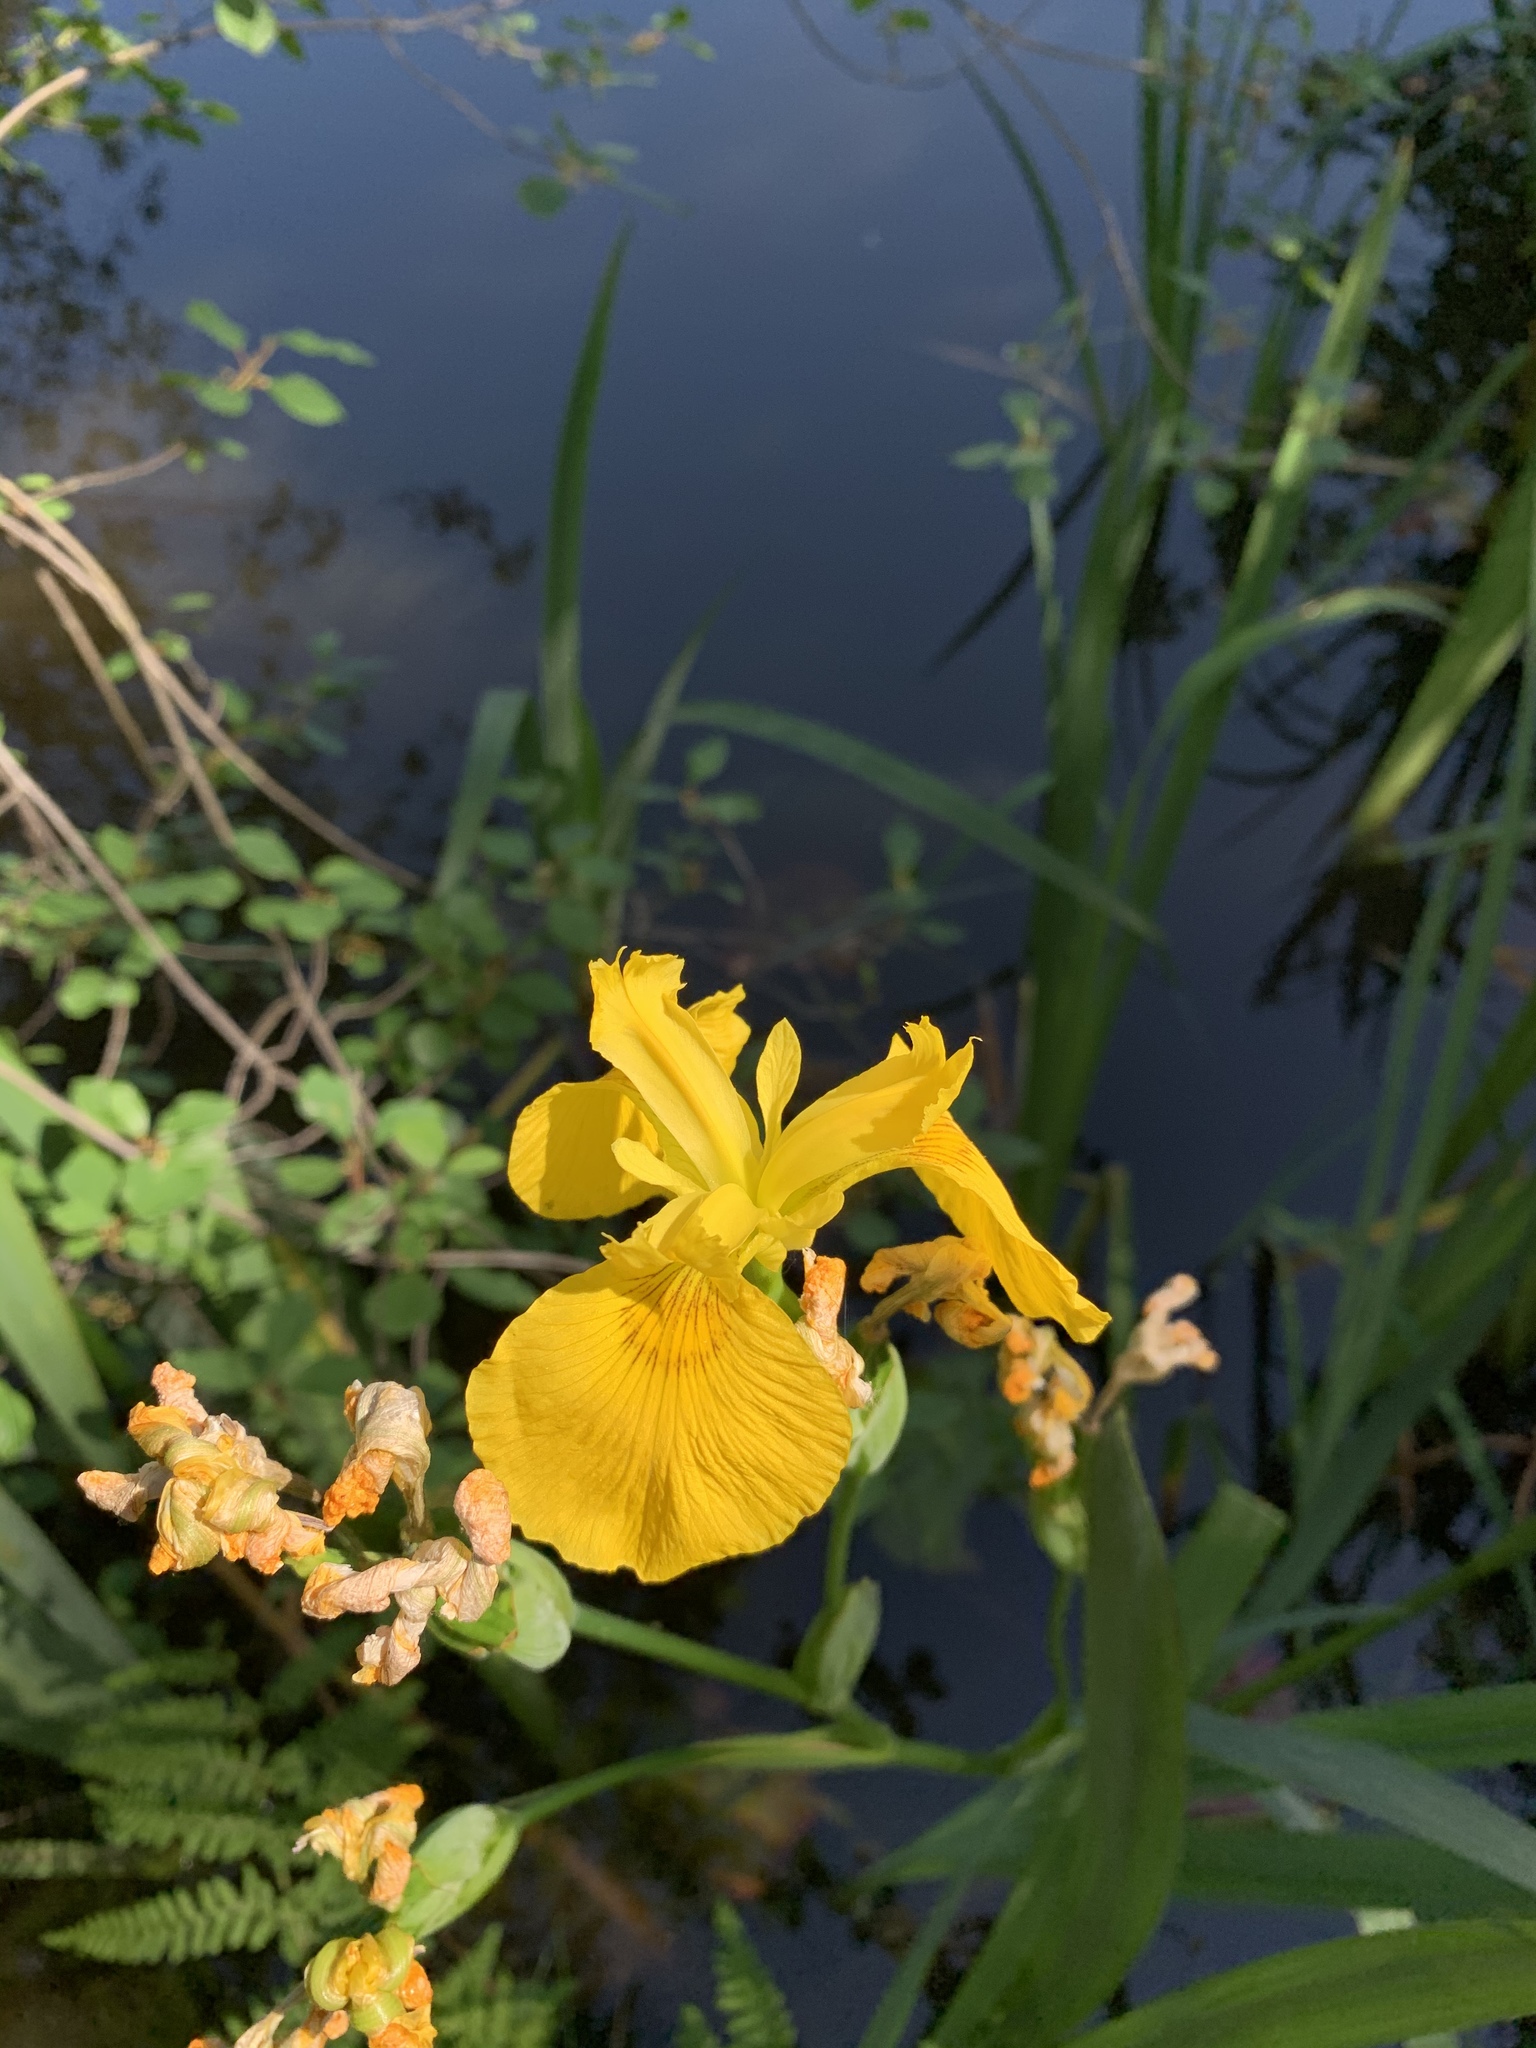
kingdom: Plantae
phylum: Tracheophyta
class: Liliopsida
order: Asparagales
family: Iridaceae
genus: Iris
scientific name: Iris pseudacorus
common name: Yellow flag
